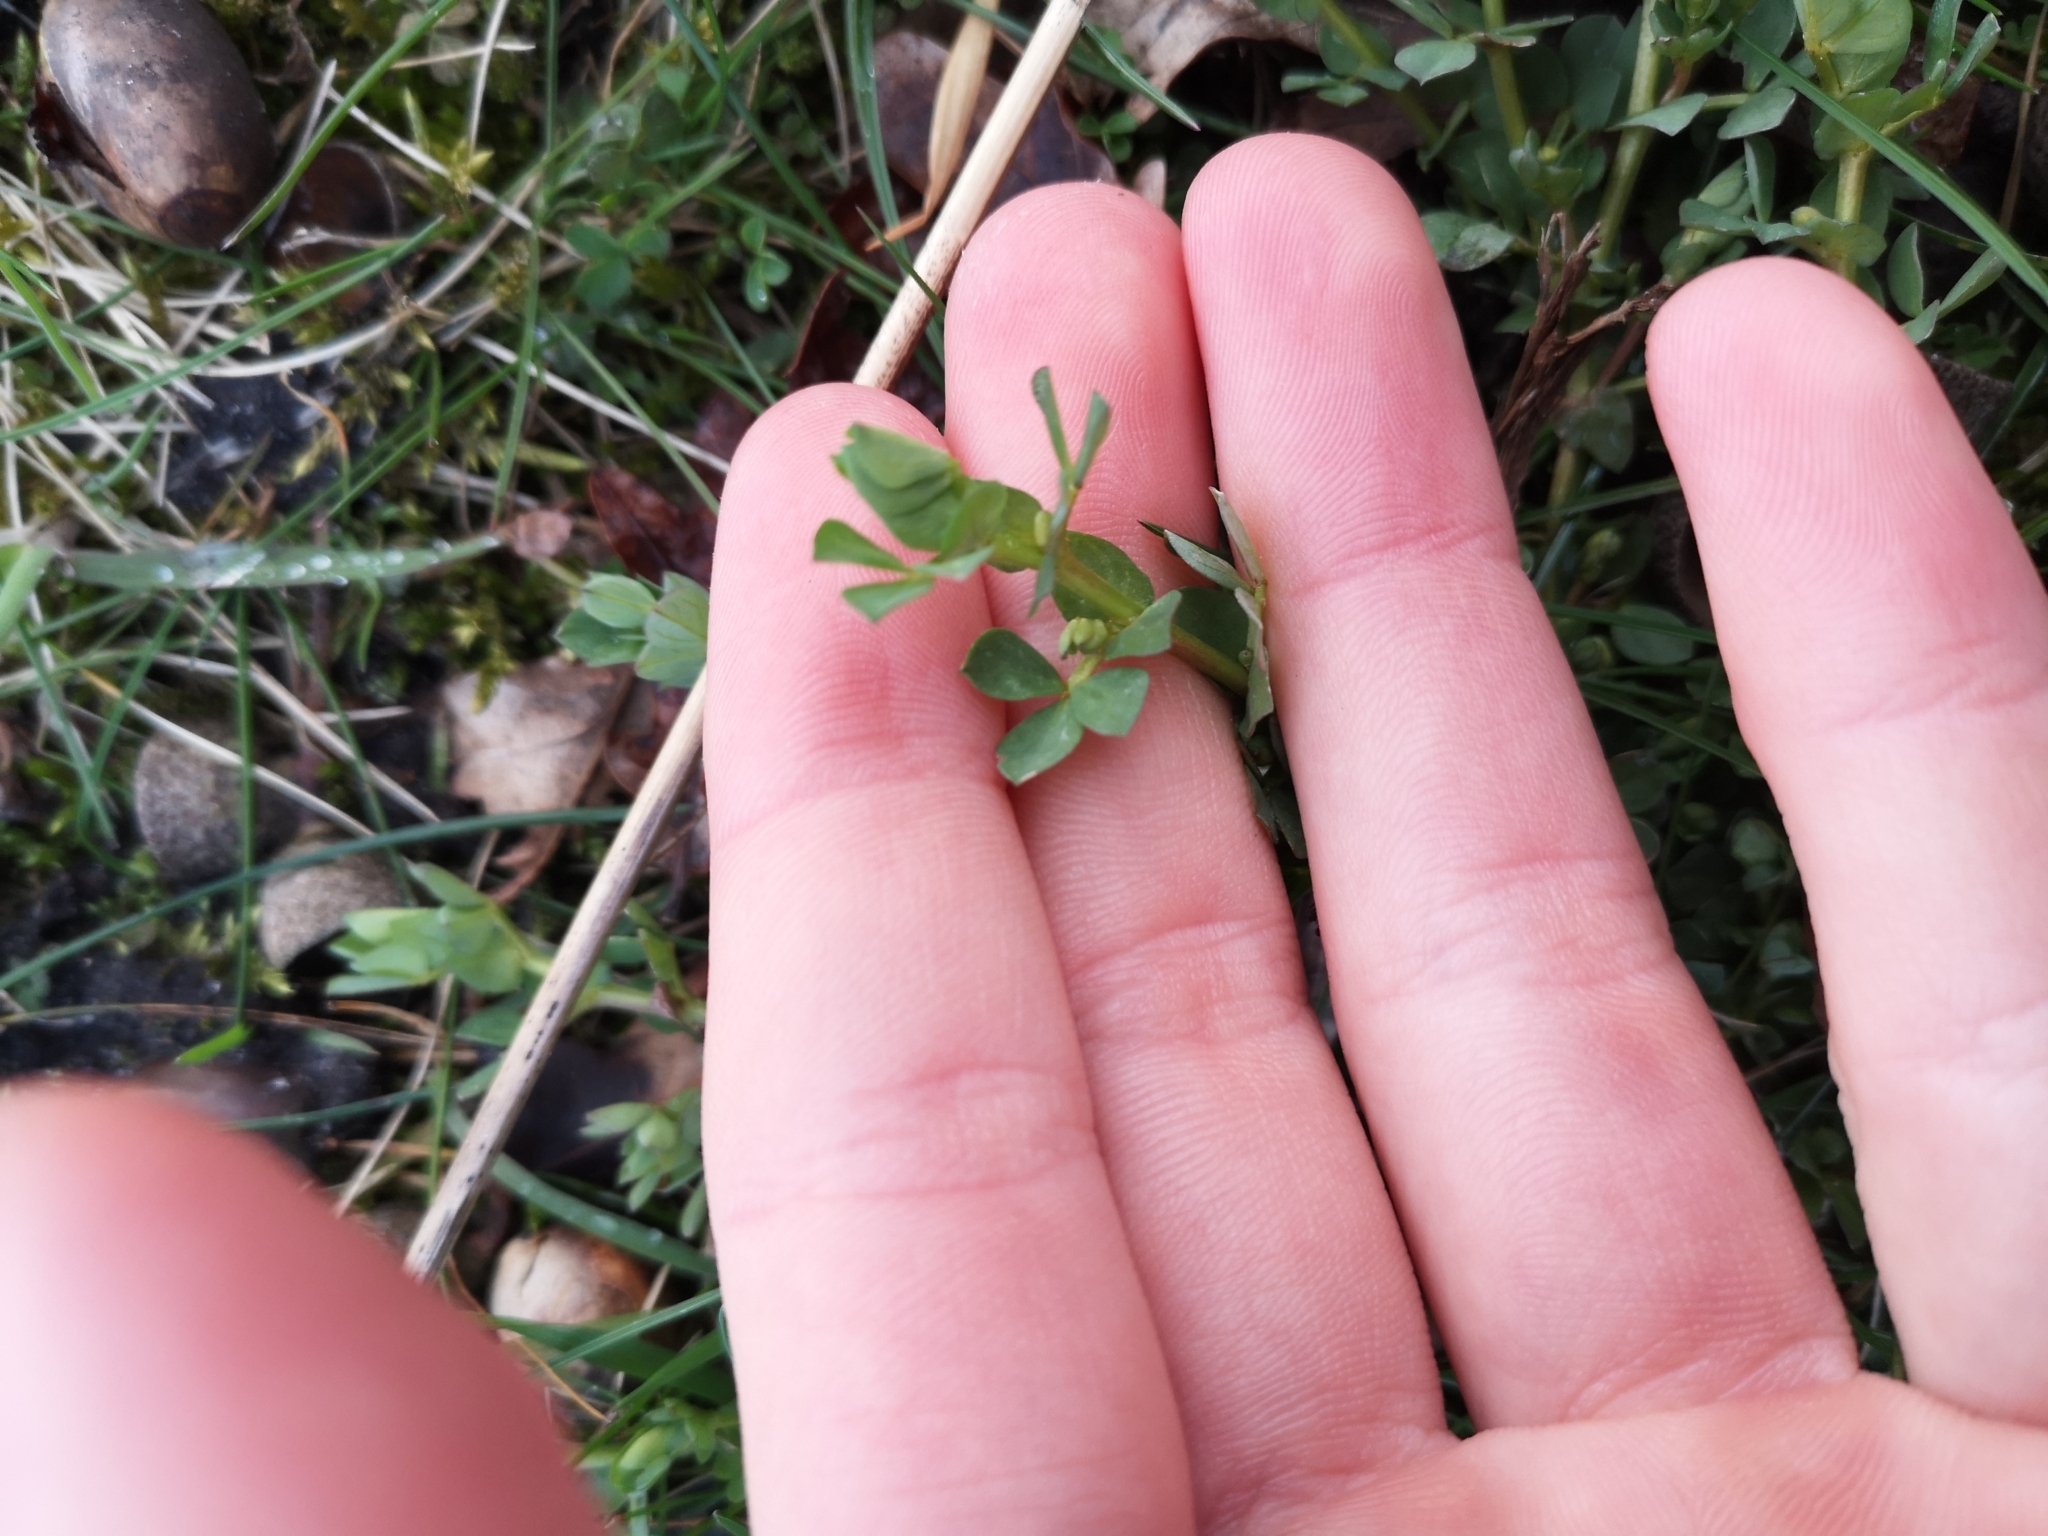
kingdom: Plantae
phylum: Tracheophyta
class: Magnoliopsida
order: Fabales
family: Fabaceae
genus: Lotus
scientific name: Lotus corniculatus
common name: Common bird's-foot-trefoil
